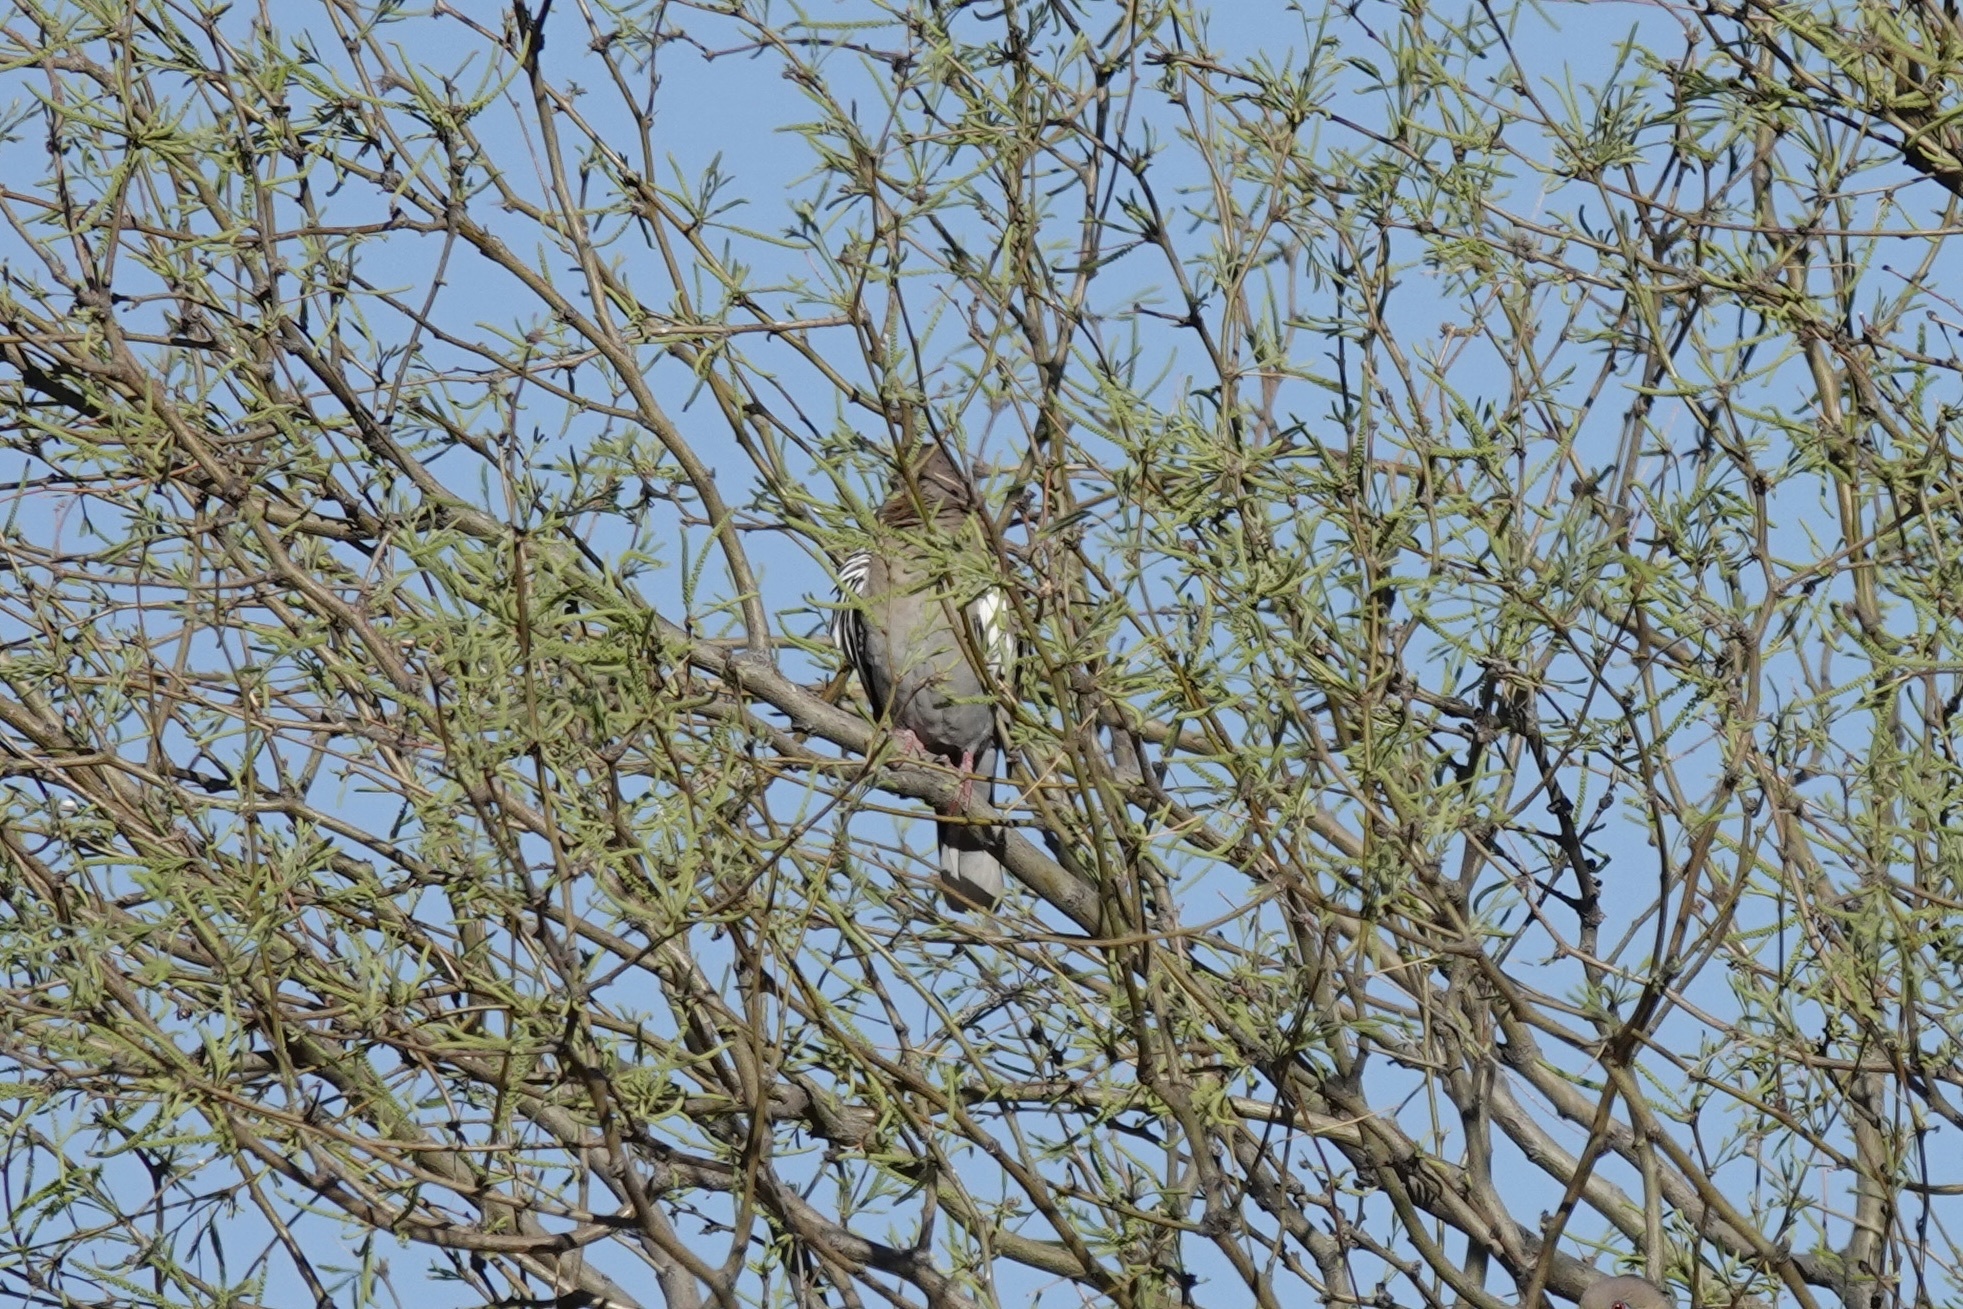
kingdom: Animalia
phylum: Chordata
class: Aves
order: Columbiformes
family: Columbidae
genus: Zenaida
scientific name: Zenaida asiatica
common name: White-winged dove
